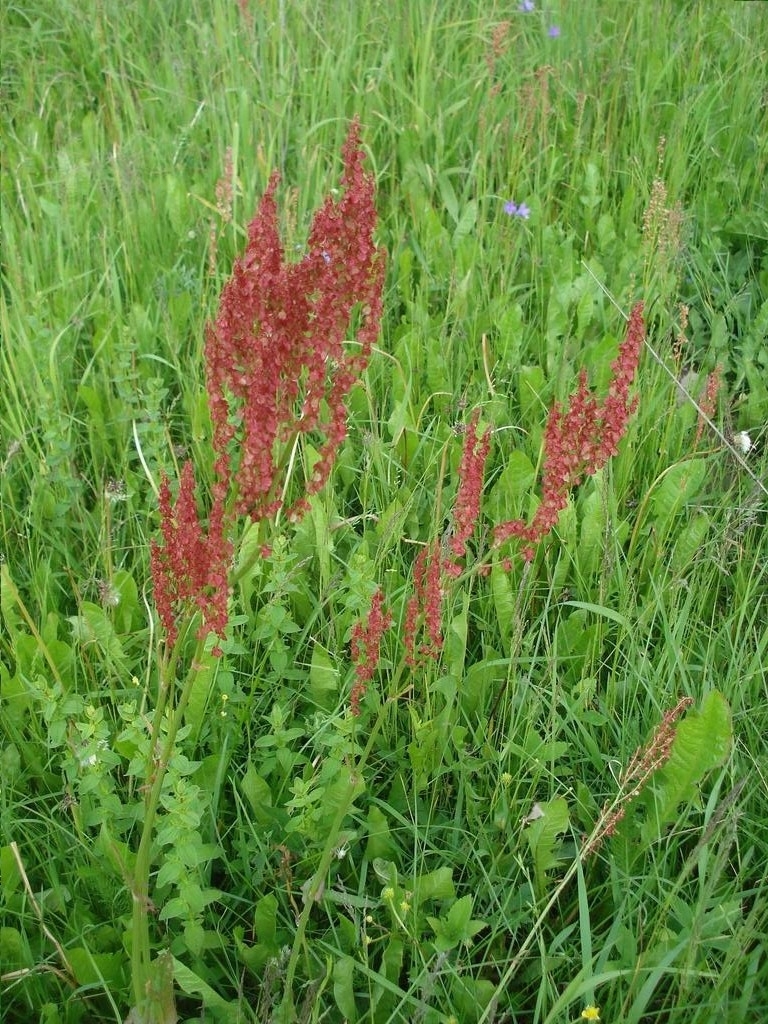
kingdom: Plantae
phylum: Tracheophyta
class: Magnoliopsida
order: Caryophyllales
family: Polygonaceae
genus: Rumex
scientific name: Rumex thyrsiflorus
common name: Garden sorrel
